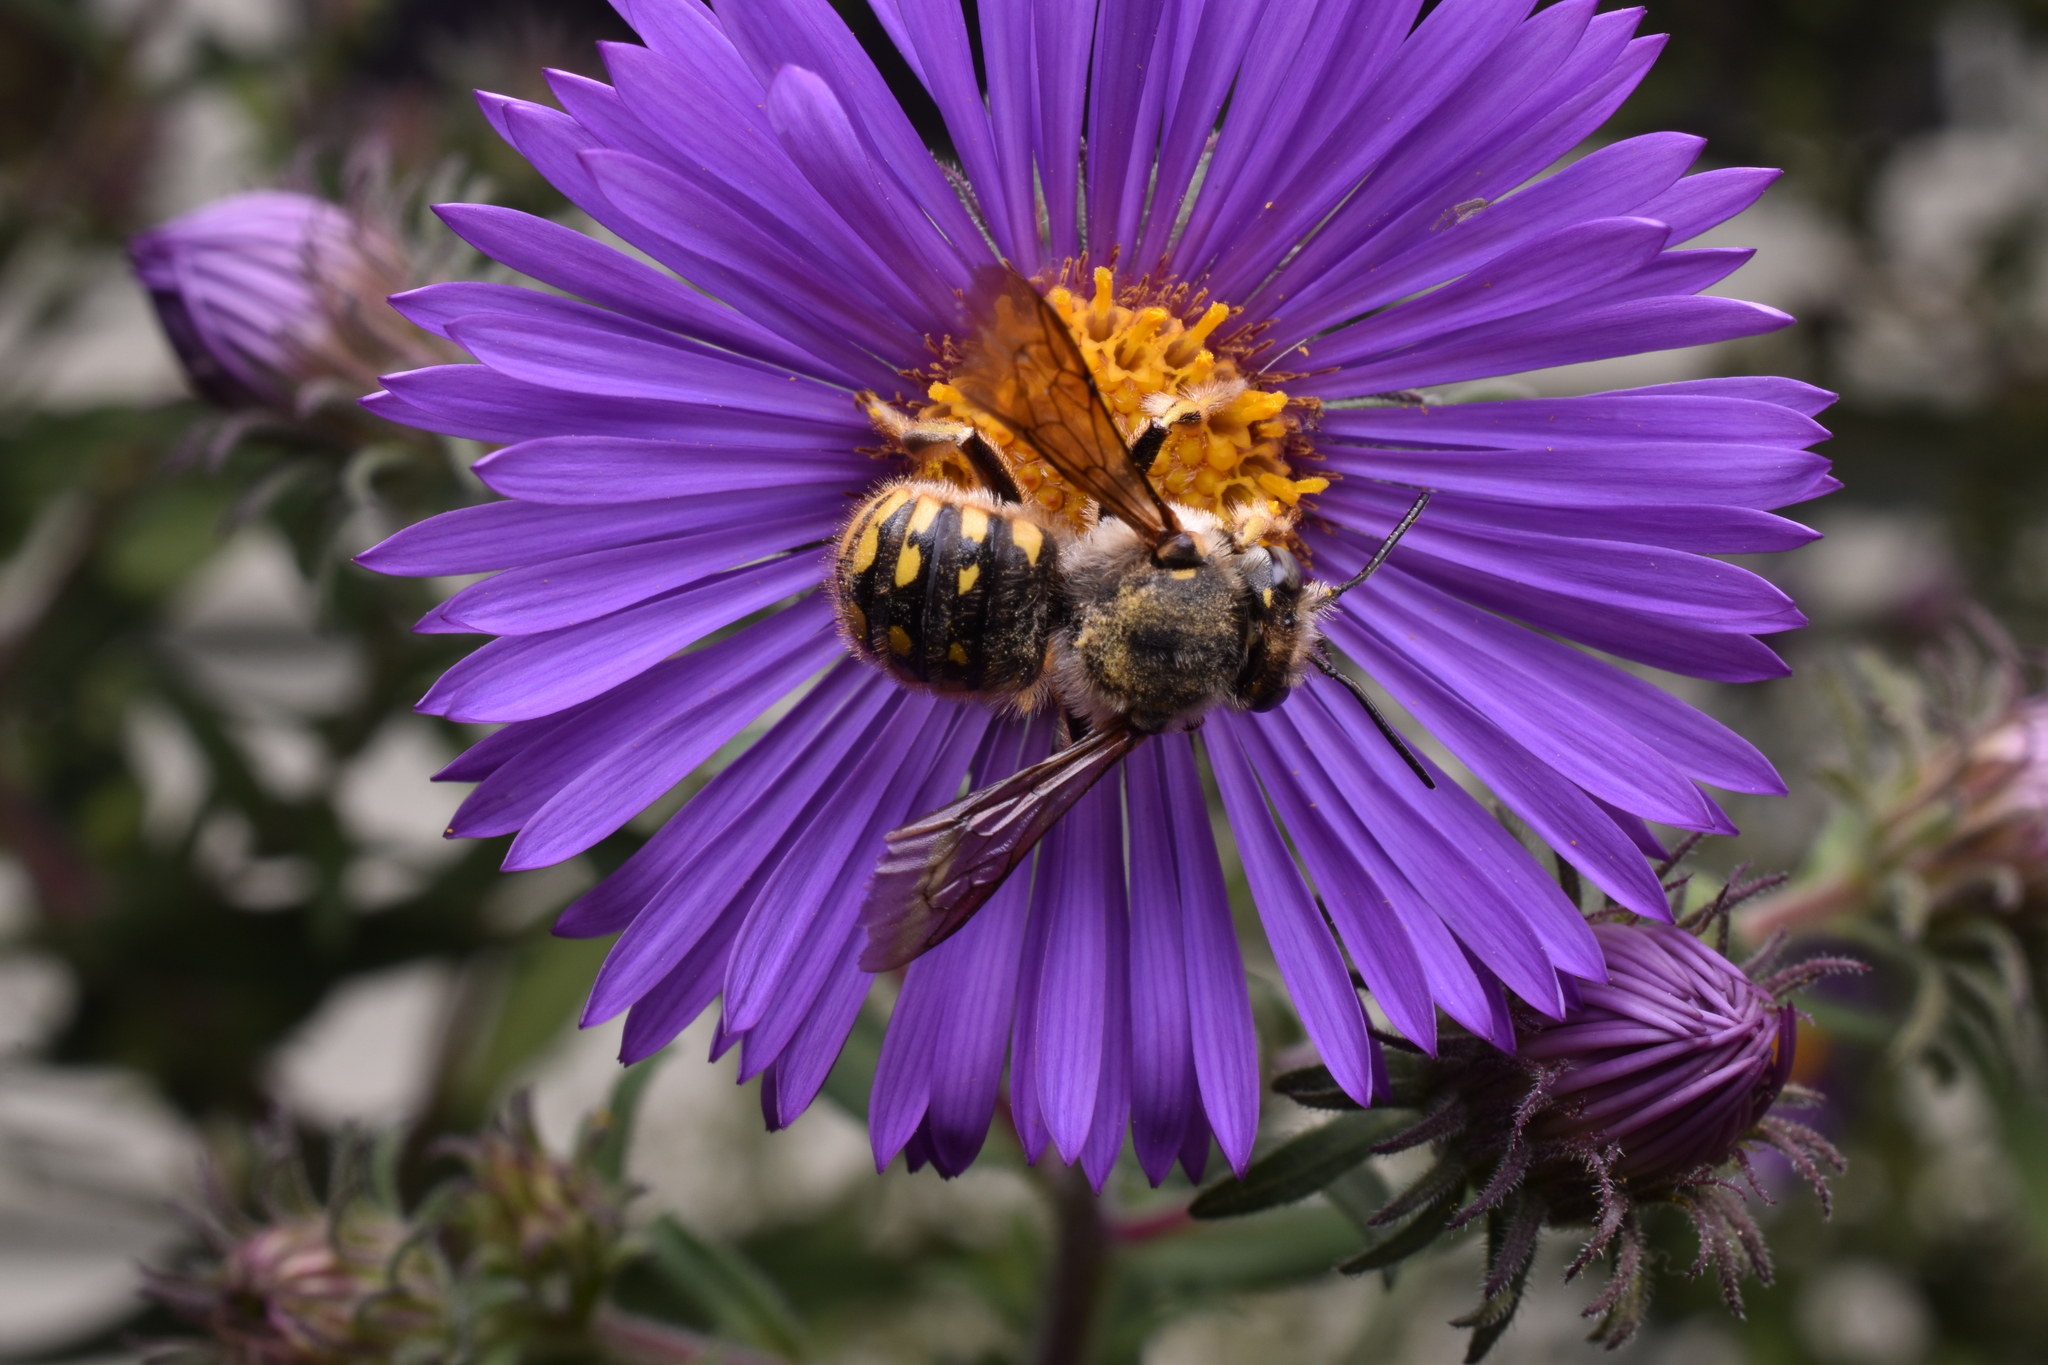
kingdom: Animalia
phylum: Arthropoda
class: Insecta
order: Hymenoptera
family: Megachilidae
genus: Anthidium
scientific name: Anthidium manicatum
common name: Wool carder bee
